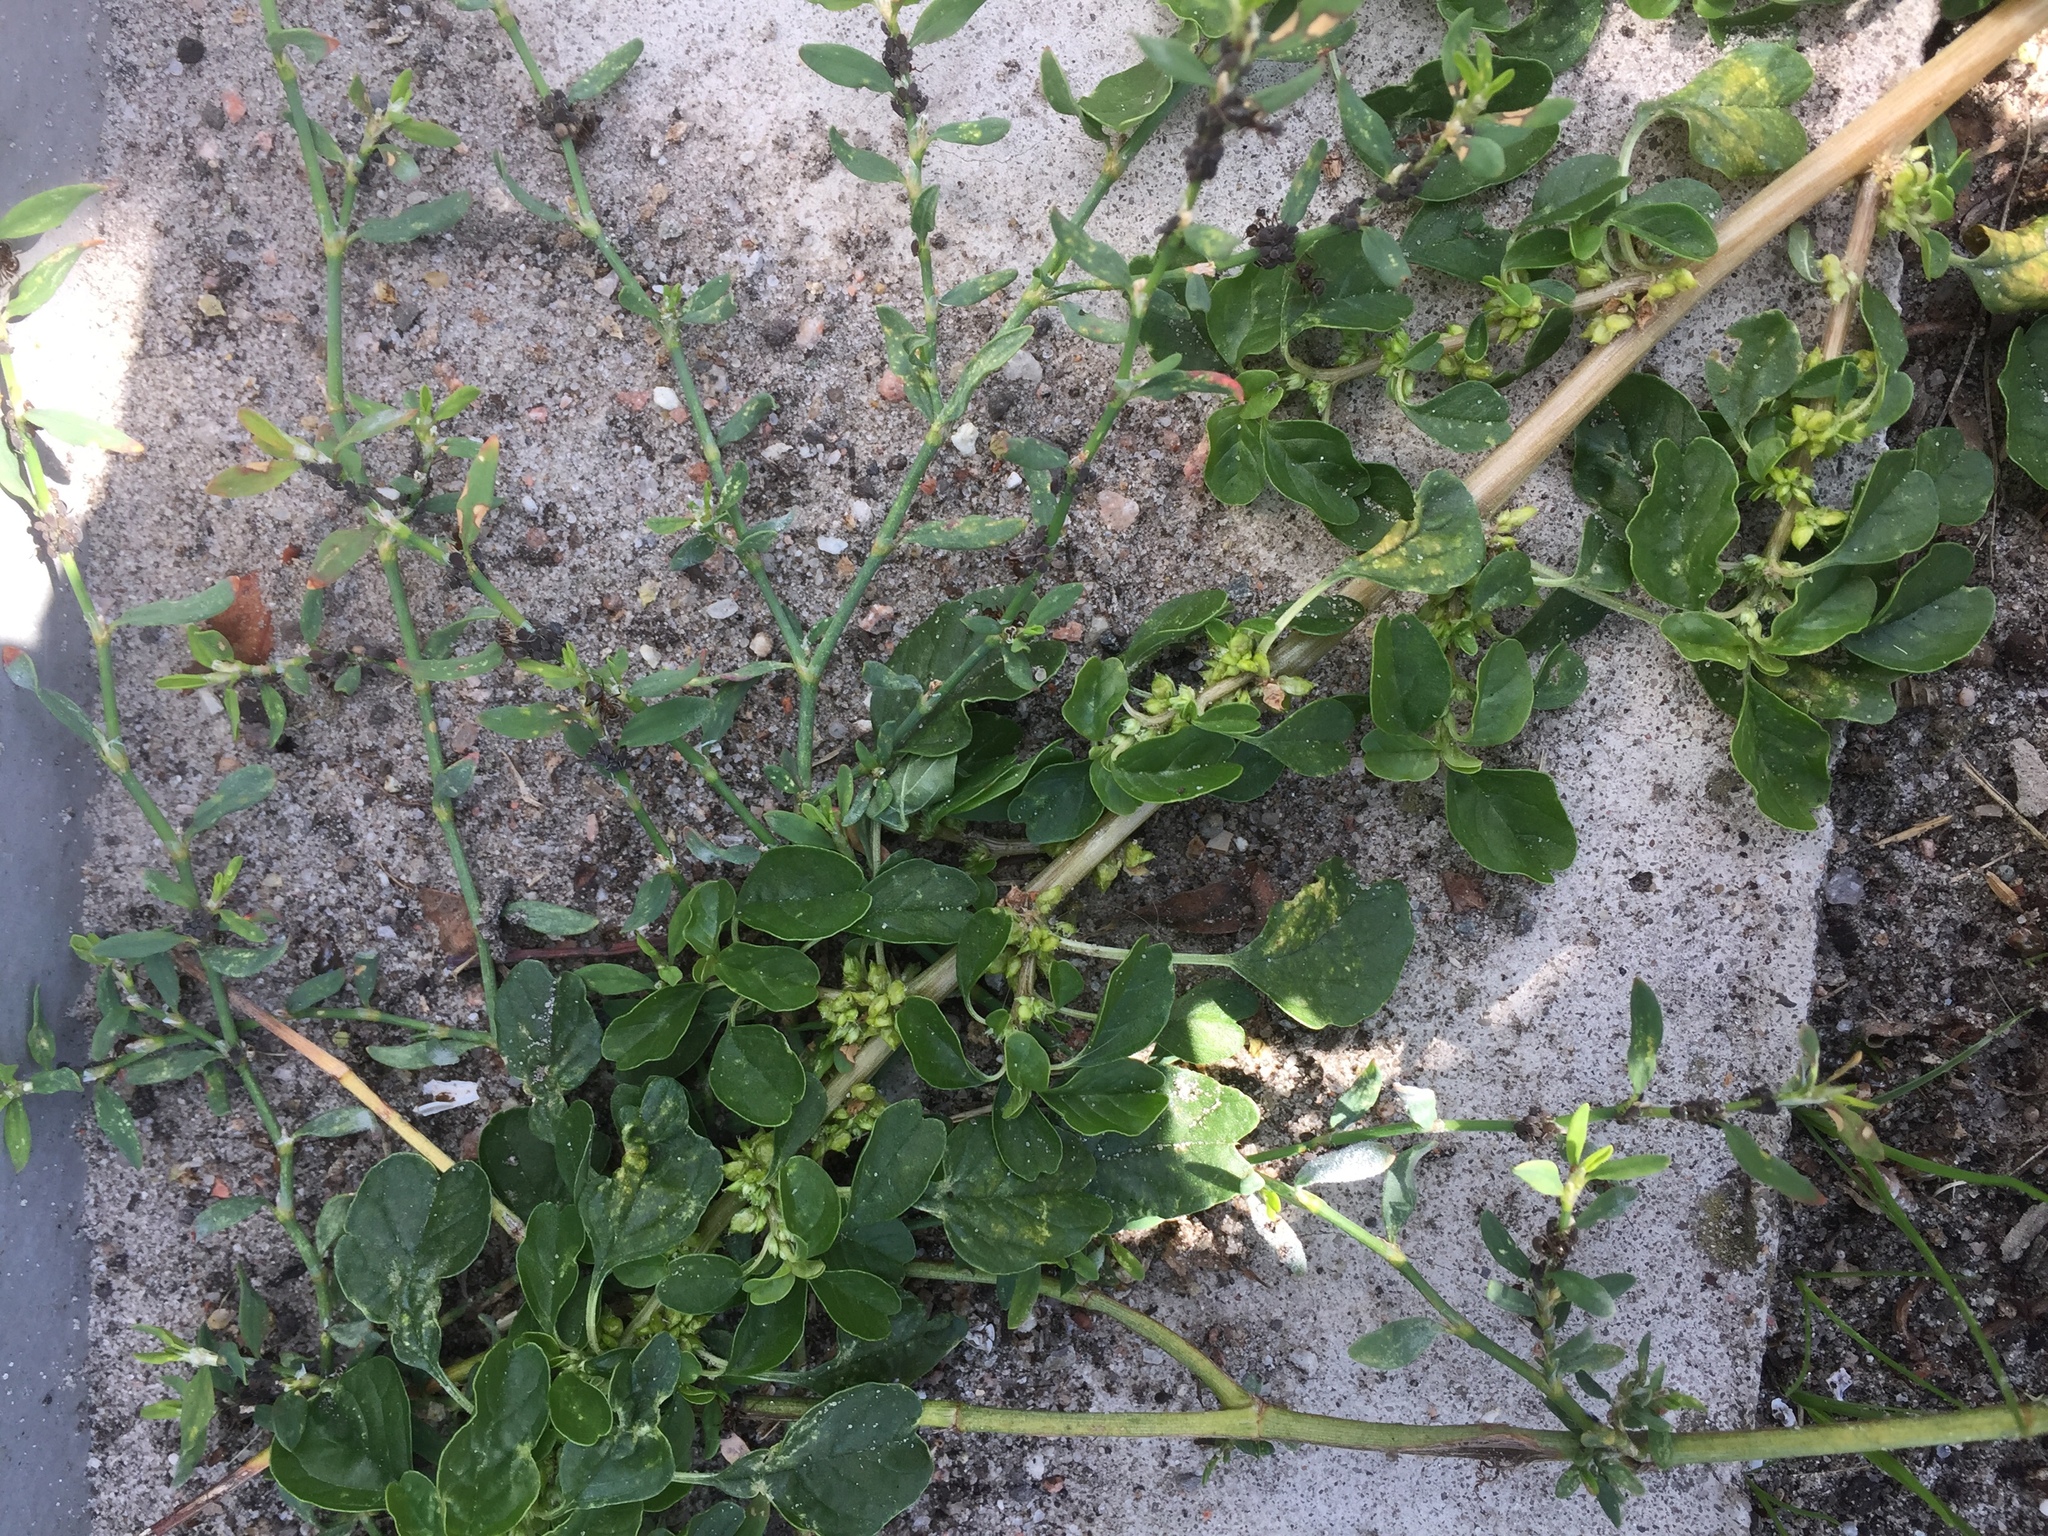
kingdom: Plantae
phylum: Tracheophyta
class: Magnoliopsida
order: Caryophyllales
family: Amaranthaceae
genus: Amaranthus
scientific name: Amaranthus blitum
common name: Purple amaranth
